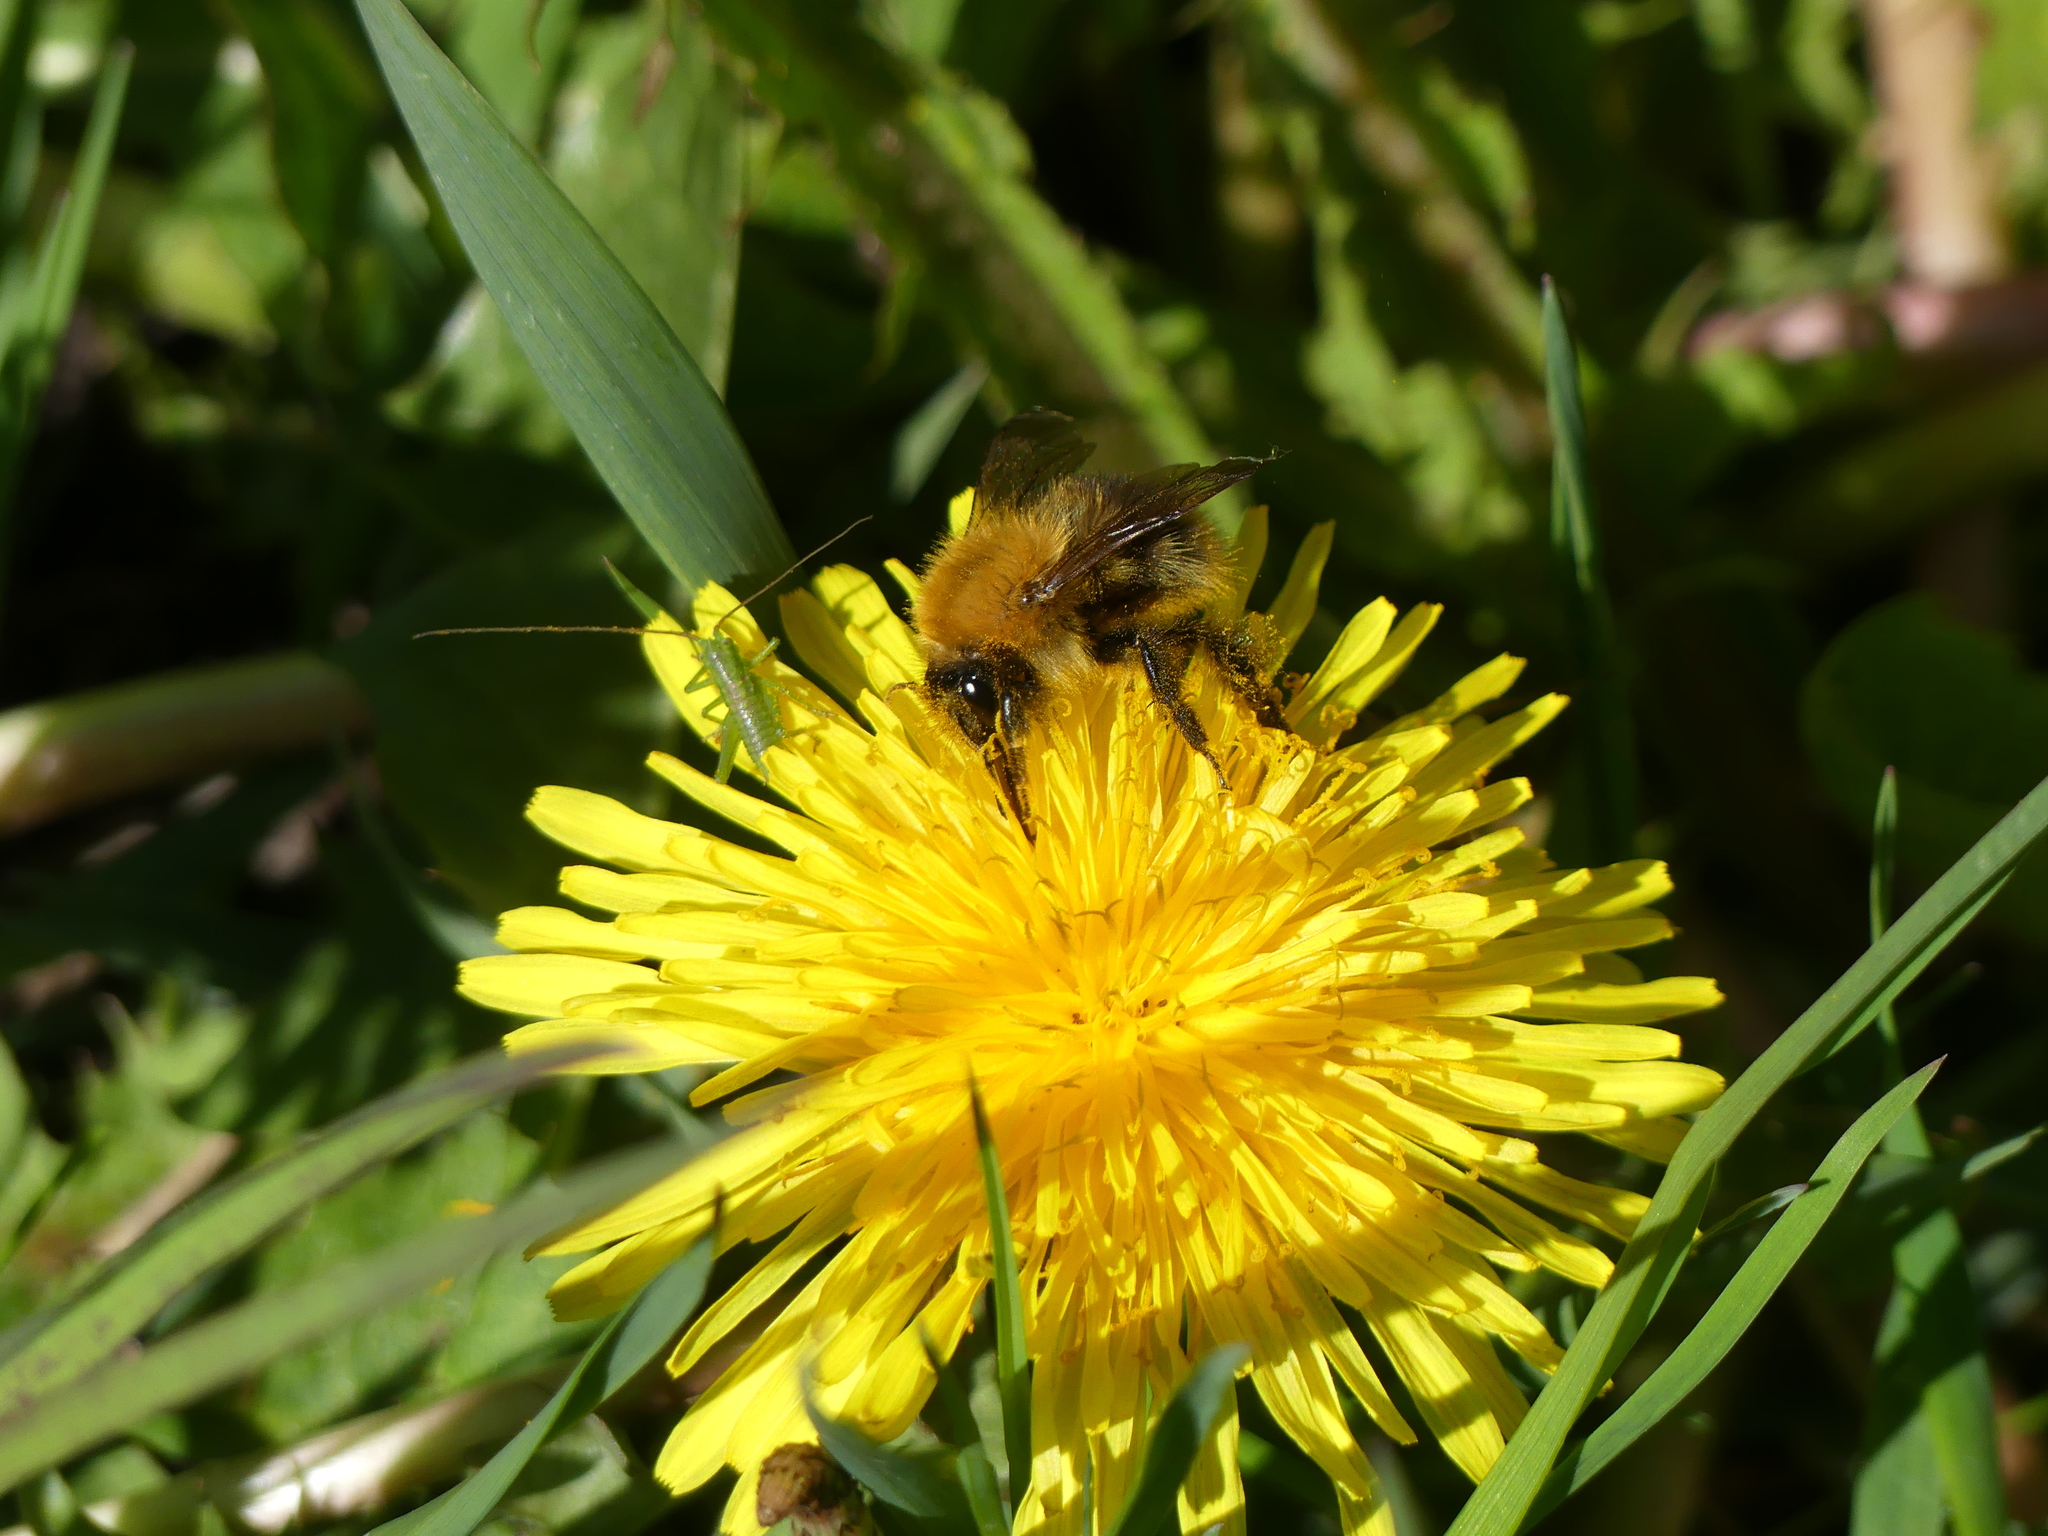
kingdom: Animalia
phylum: Arthropoda
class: Insecta
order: Hymenoptera
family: Apidae
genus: Bombus
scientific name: Bombus pascuorum
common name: Common carder bee
